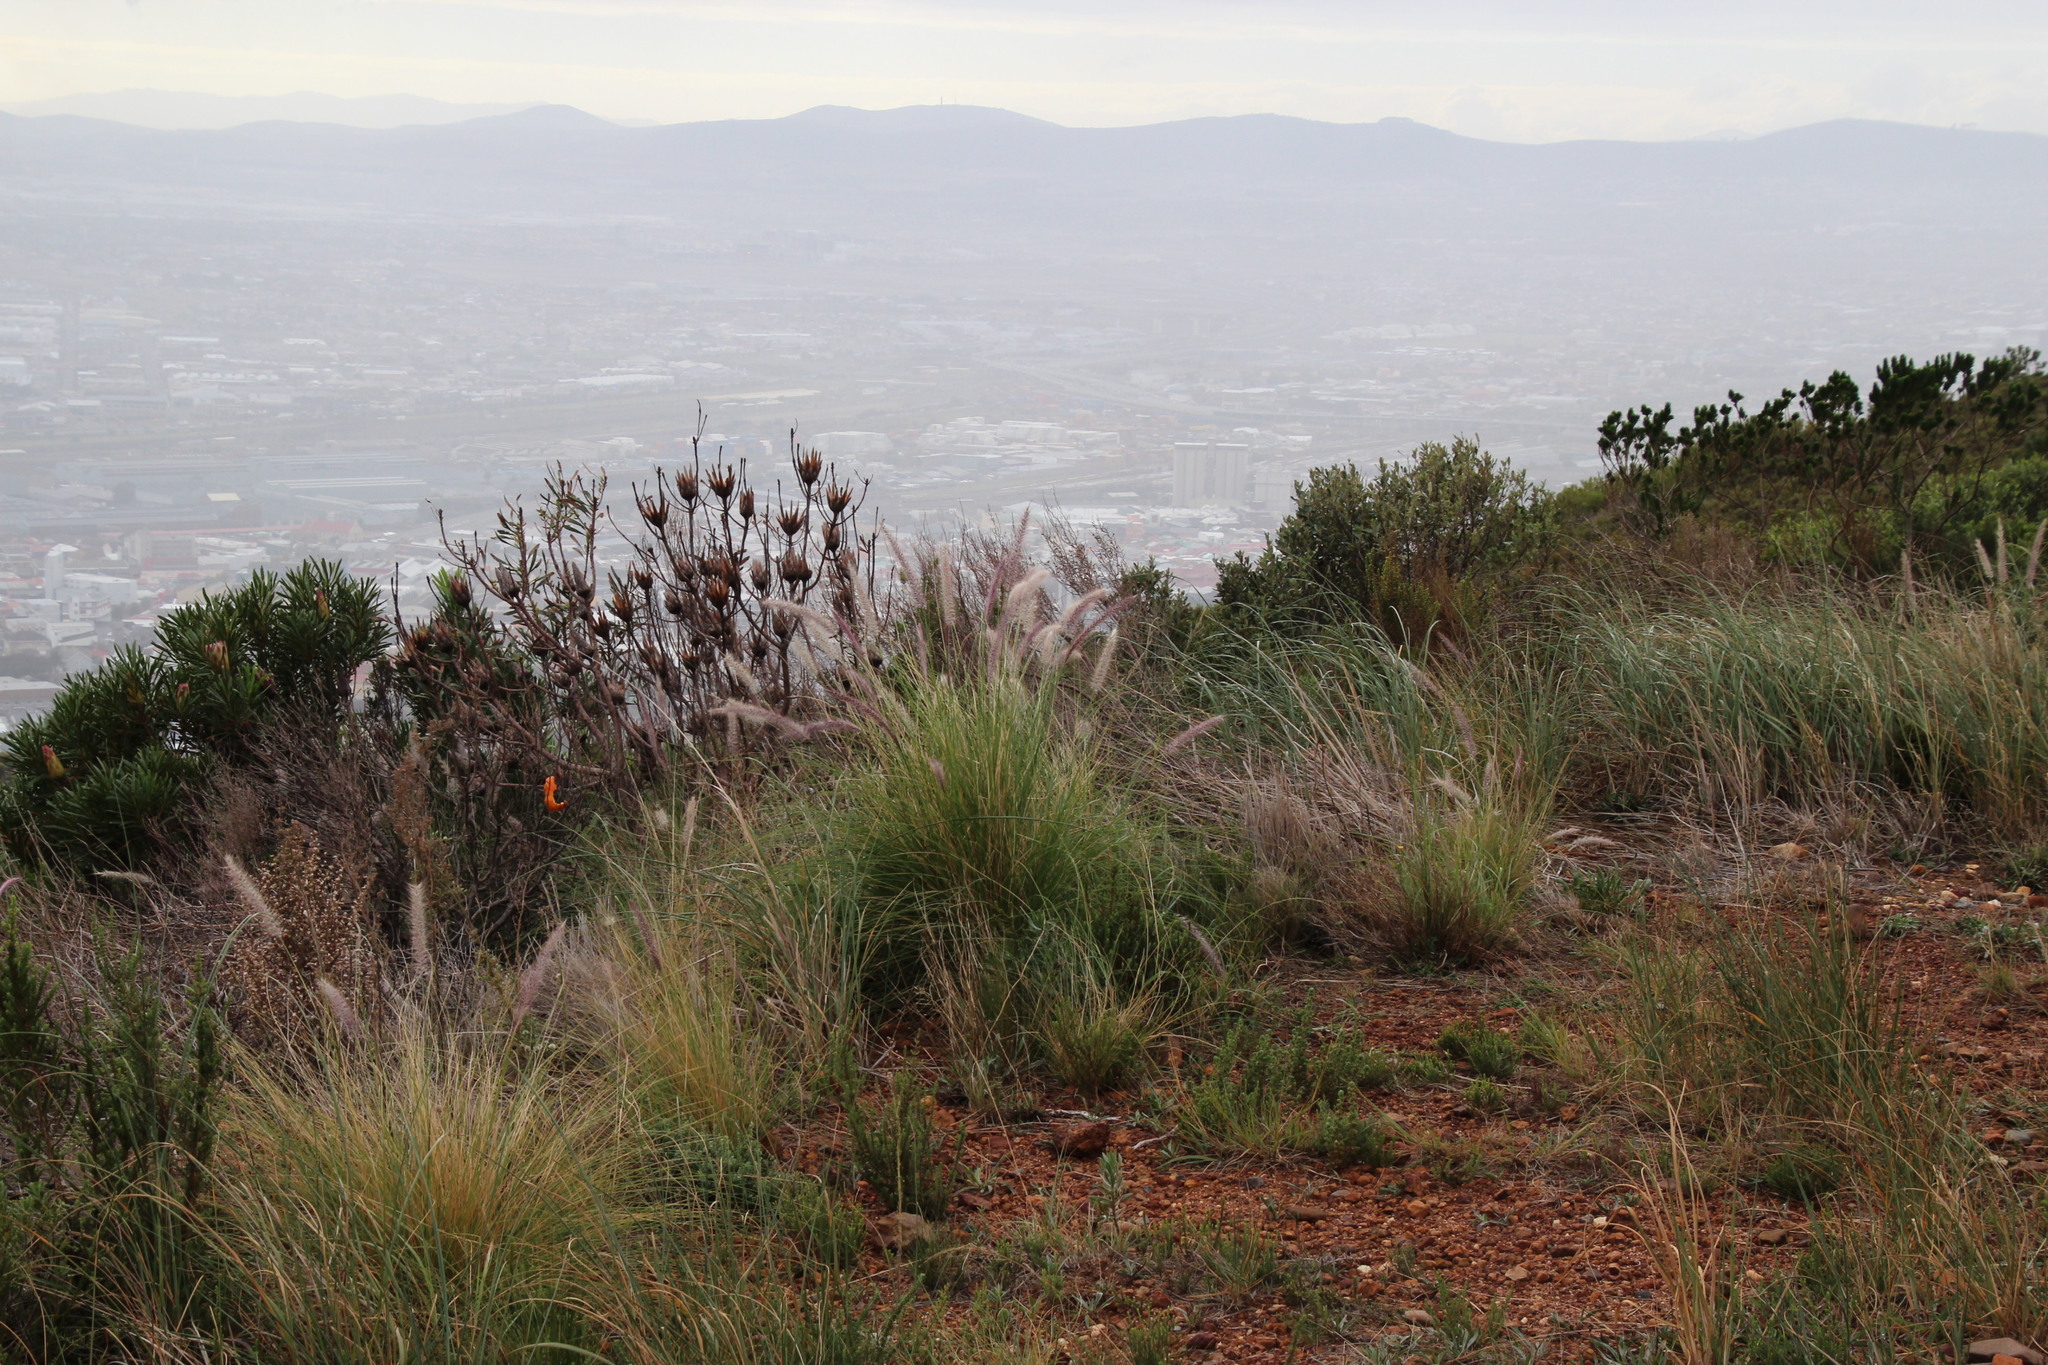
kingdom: Plantae
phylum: Tracheophyta
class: Liliopsida
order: Poales
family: Poaceae
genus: Cenchrus
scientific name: Cenchrus setaceus
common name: Crimson fountaingrass
